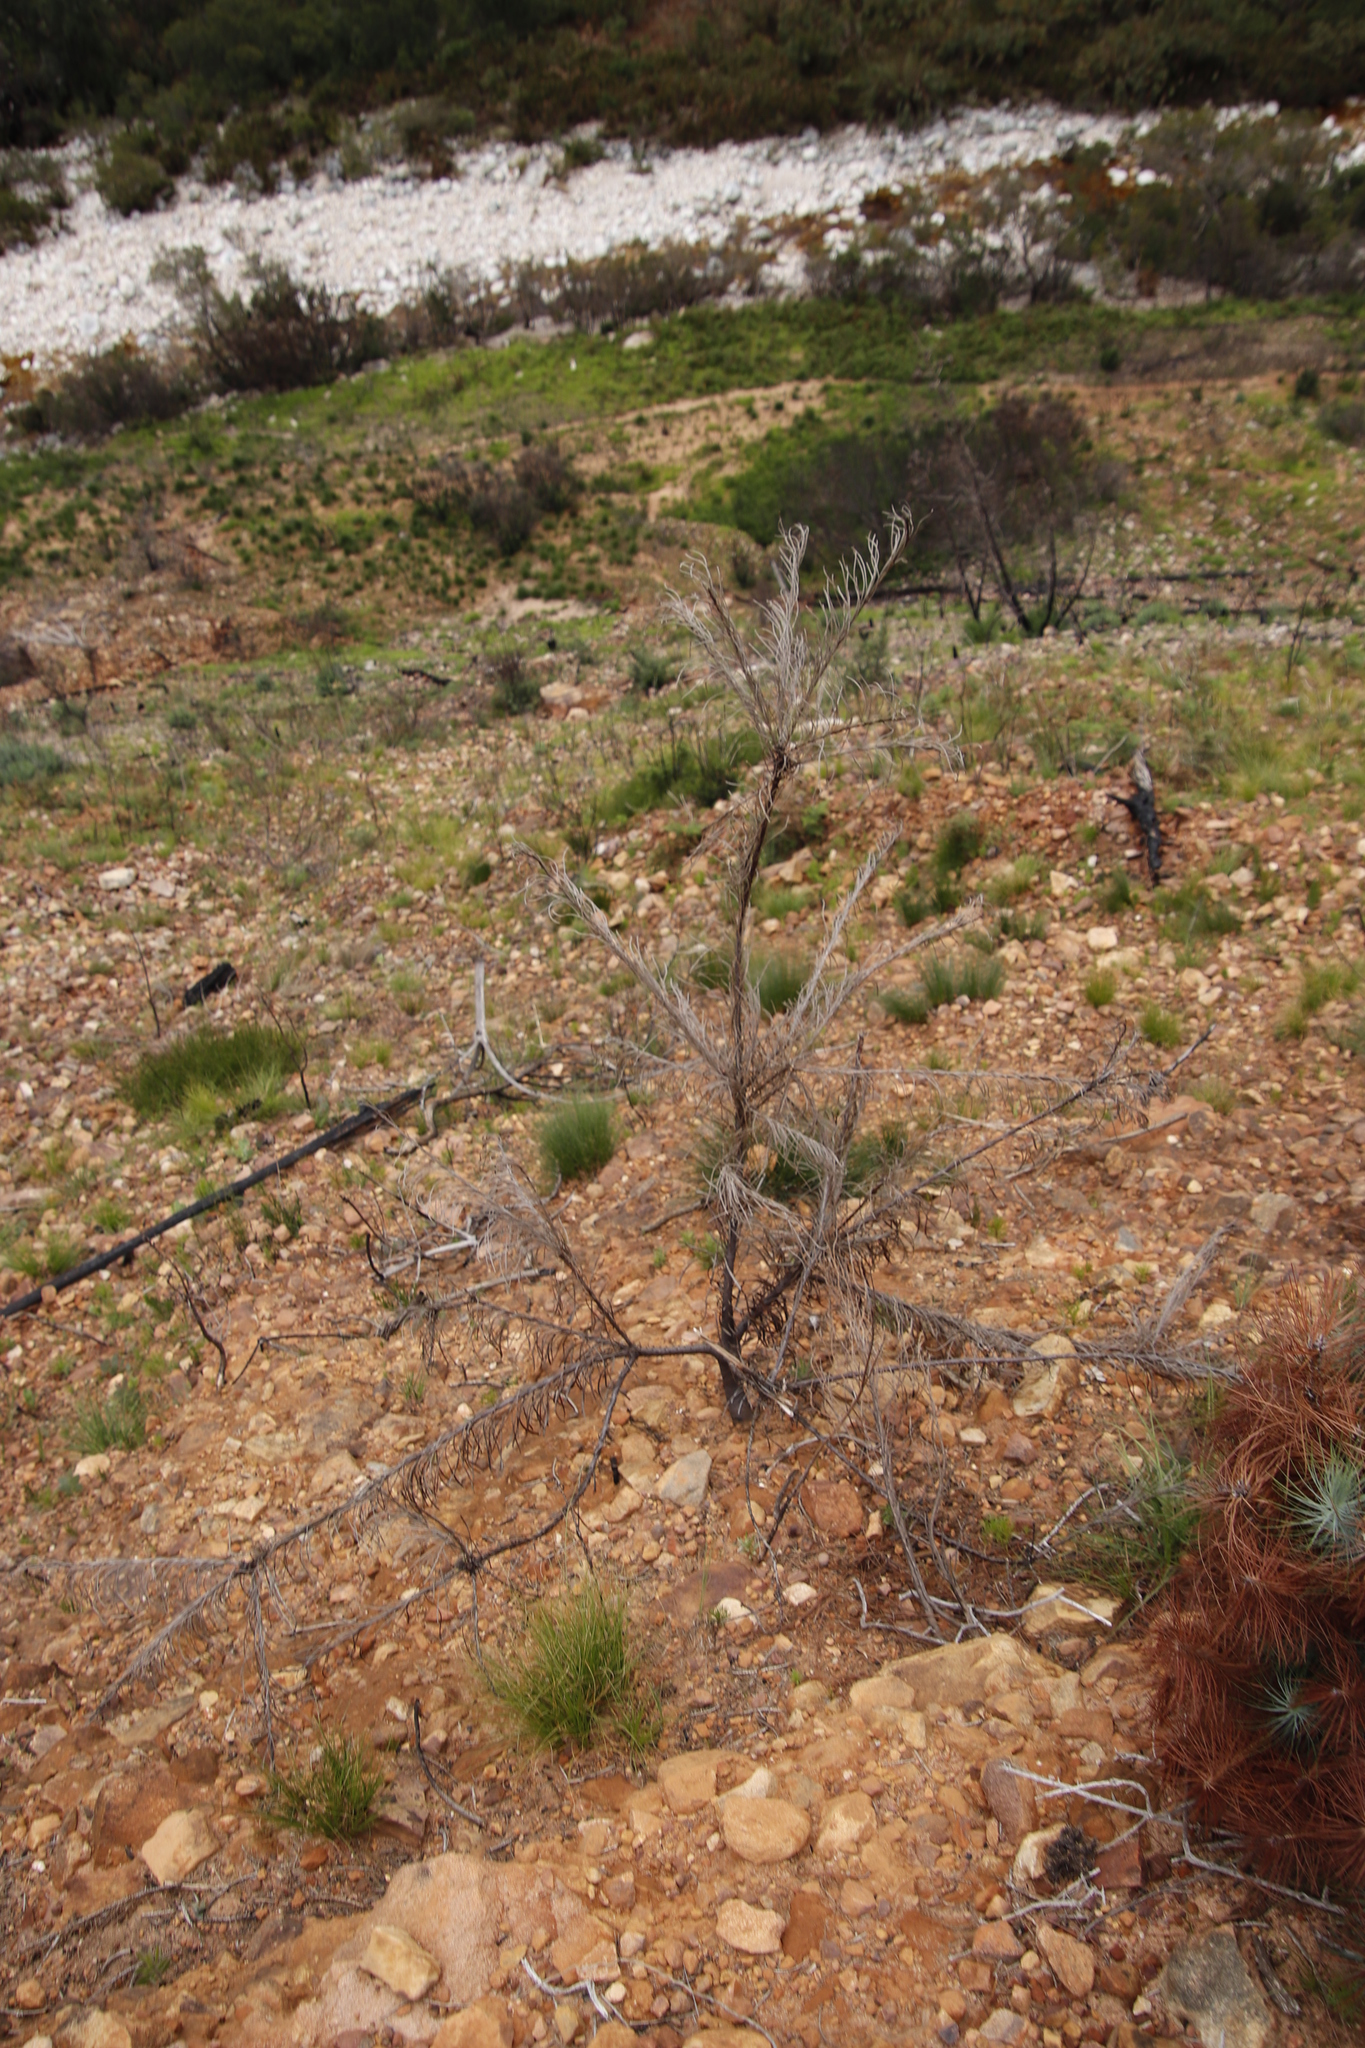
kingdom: Plantae
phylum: Tracheophyta
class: Magnoliopsida
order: Proteales
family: Proteaceae
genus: Leucospermum
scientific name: Leucospermum lineare
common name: Needle-leaf pincushion
